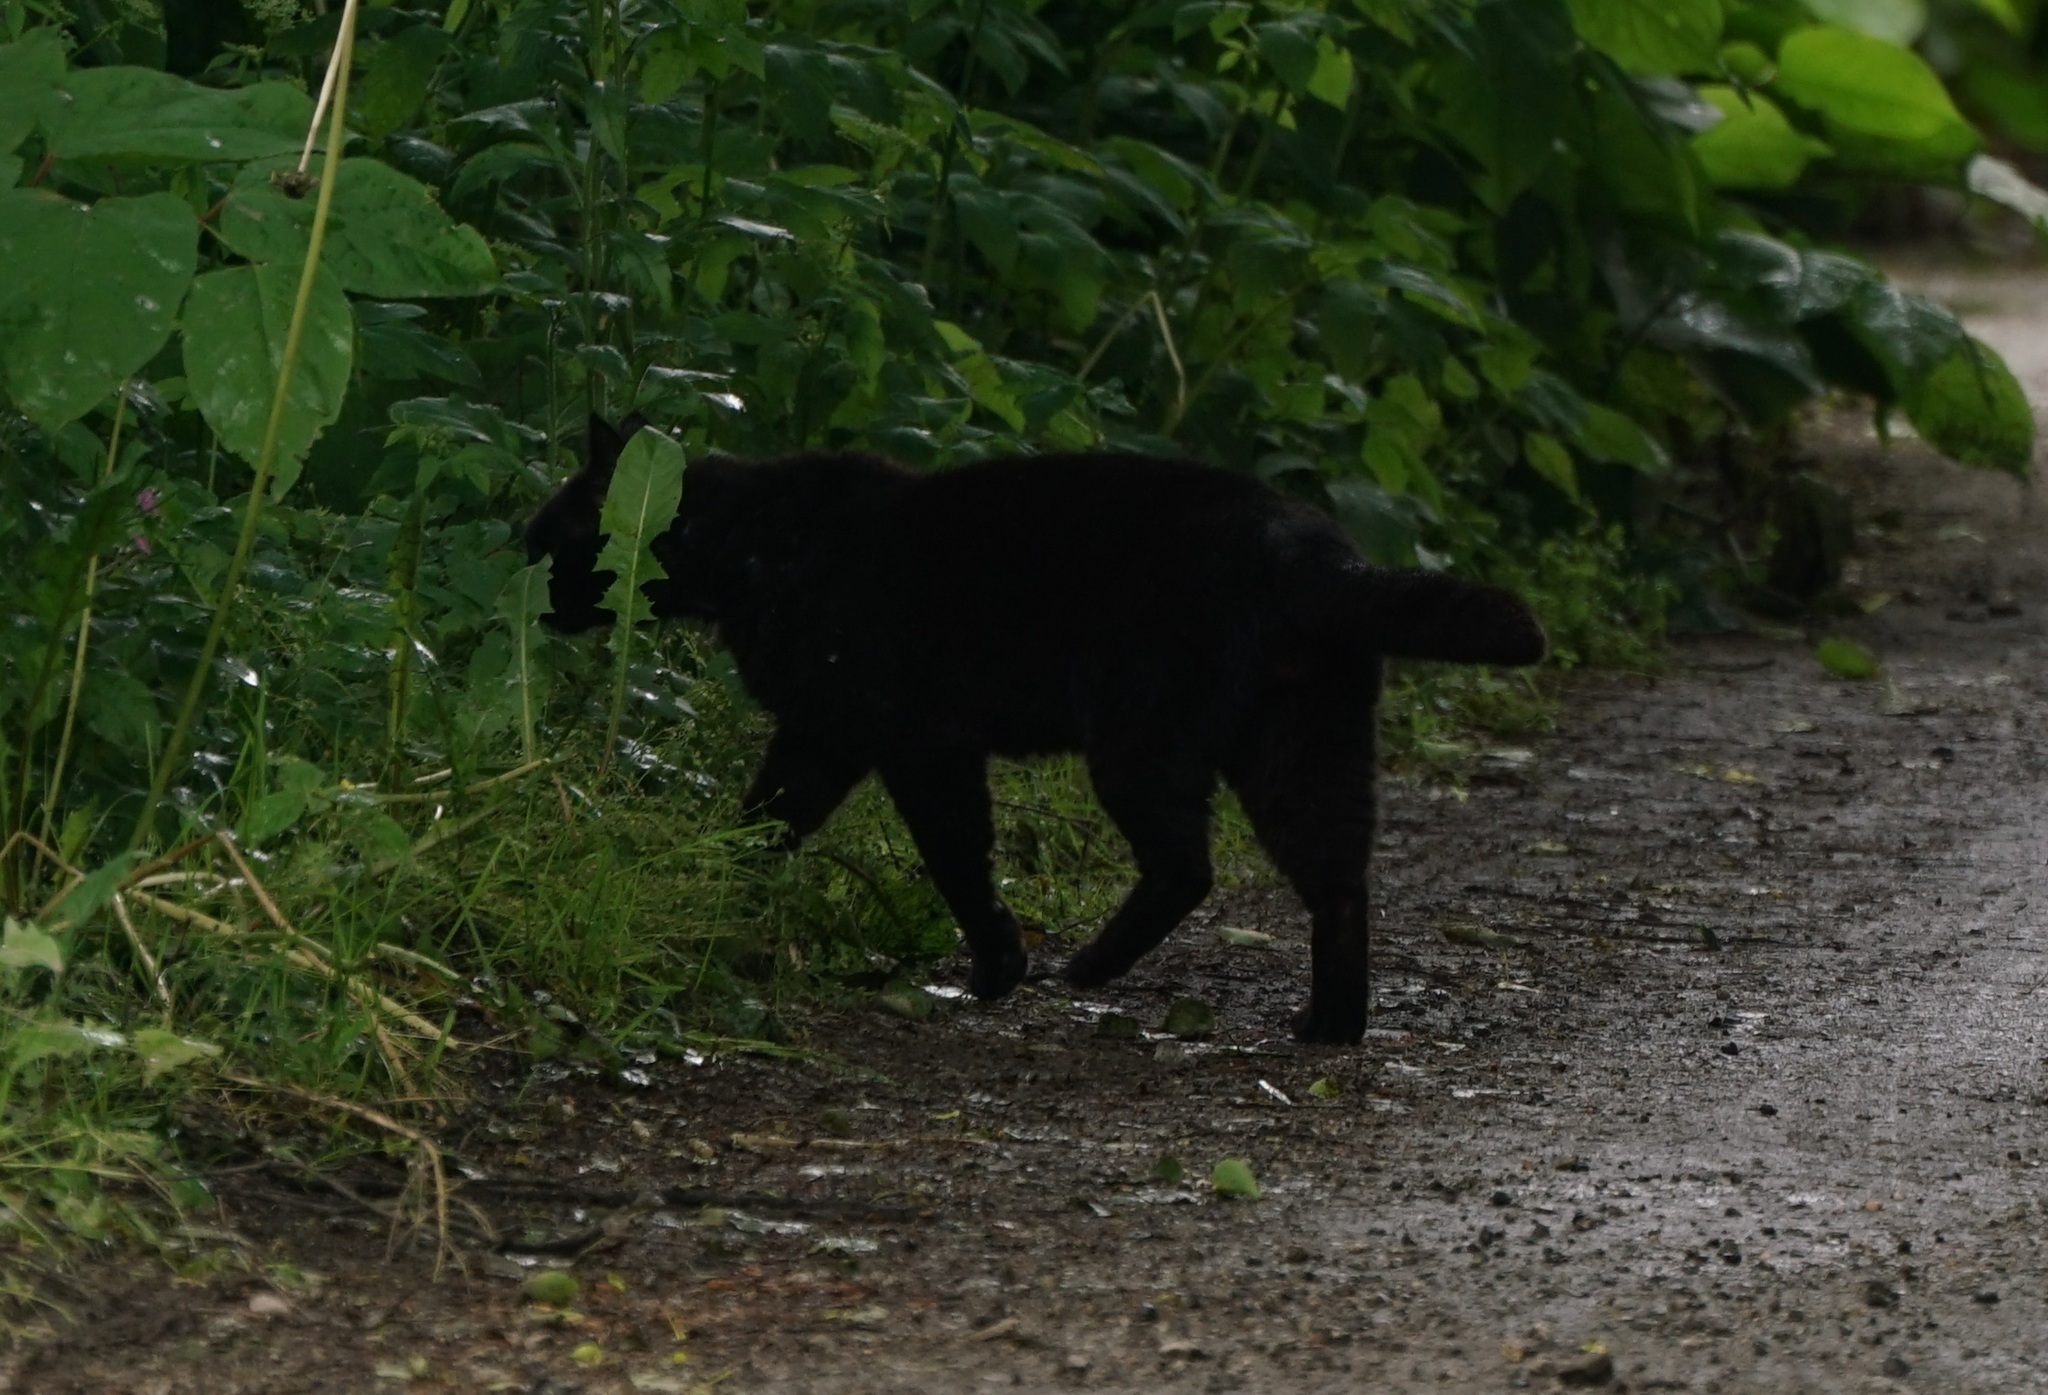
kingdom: Animalia
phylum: Chordata
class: Mammalia
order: Carnivora
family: Felidae
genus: Felis
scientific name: Felis catus
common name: Domestic cat
